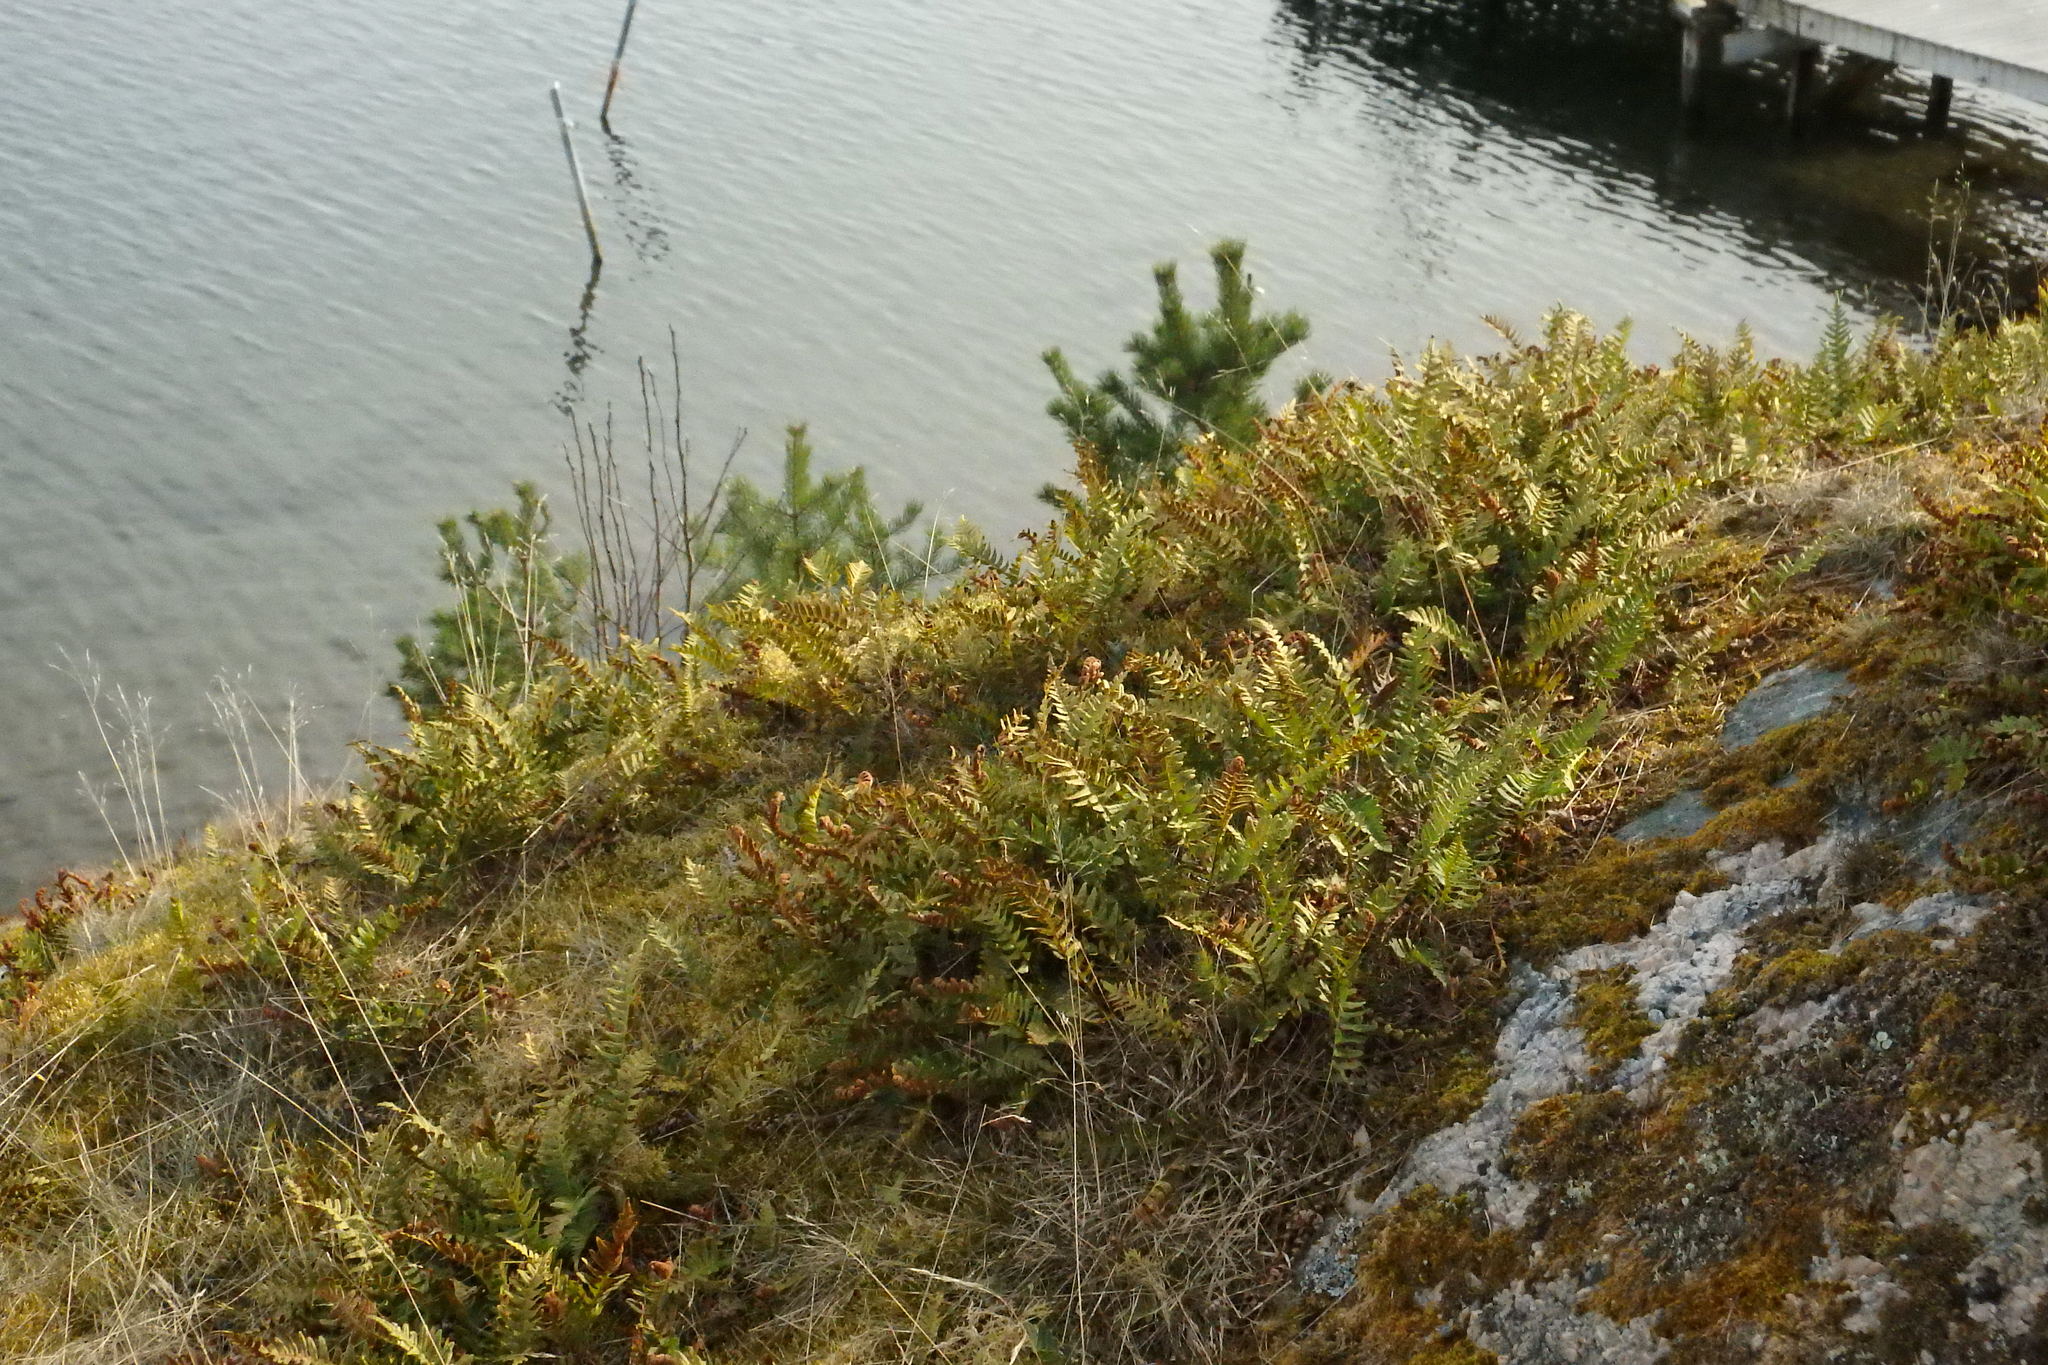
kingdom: Plantae
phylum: Tracheophyta
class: Polypodiopsida
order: Polypodiales
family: Polypodiaceae
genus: Polypodium
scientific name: Polypodium vulgare
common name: Common polypody
